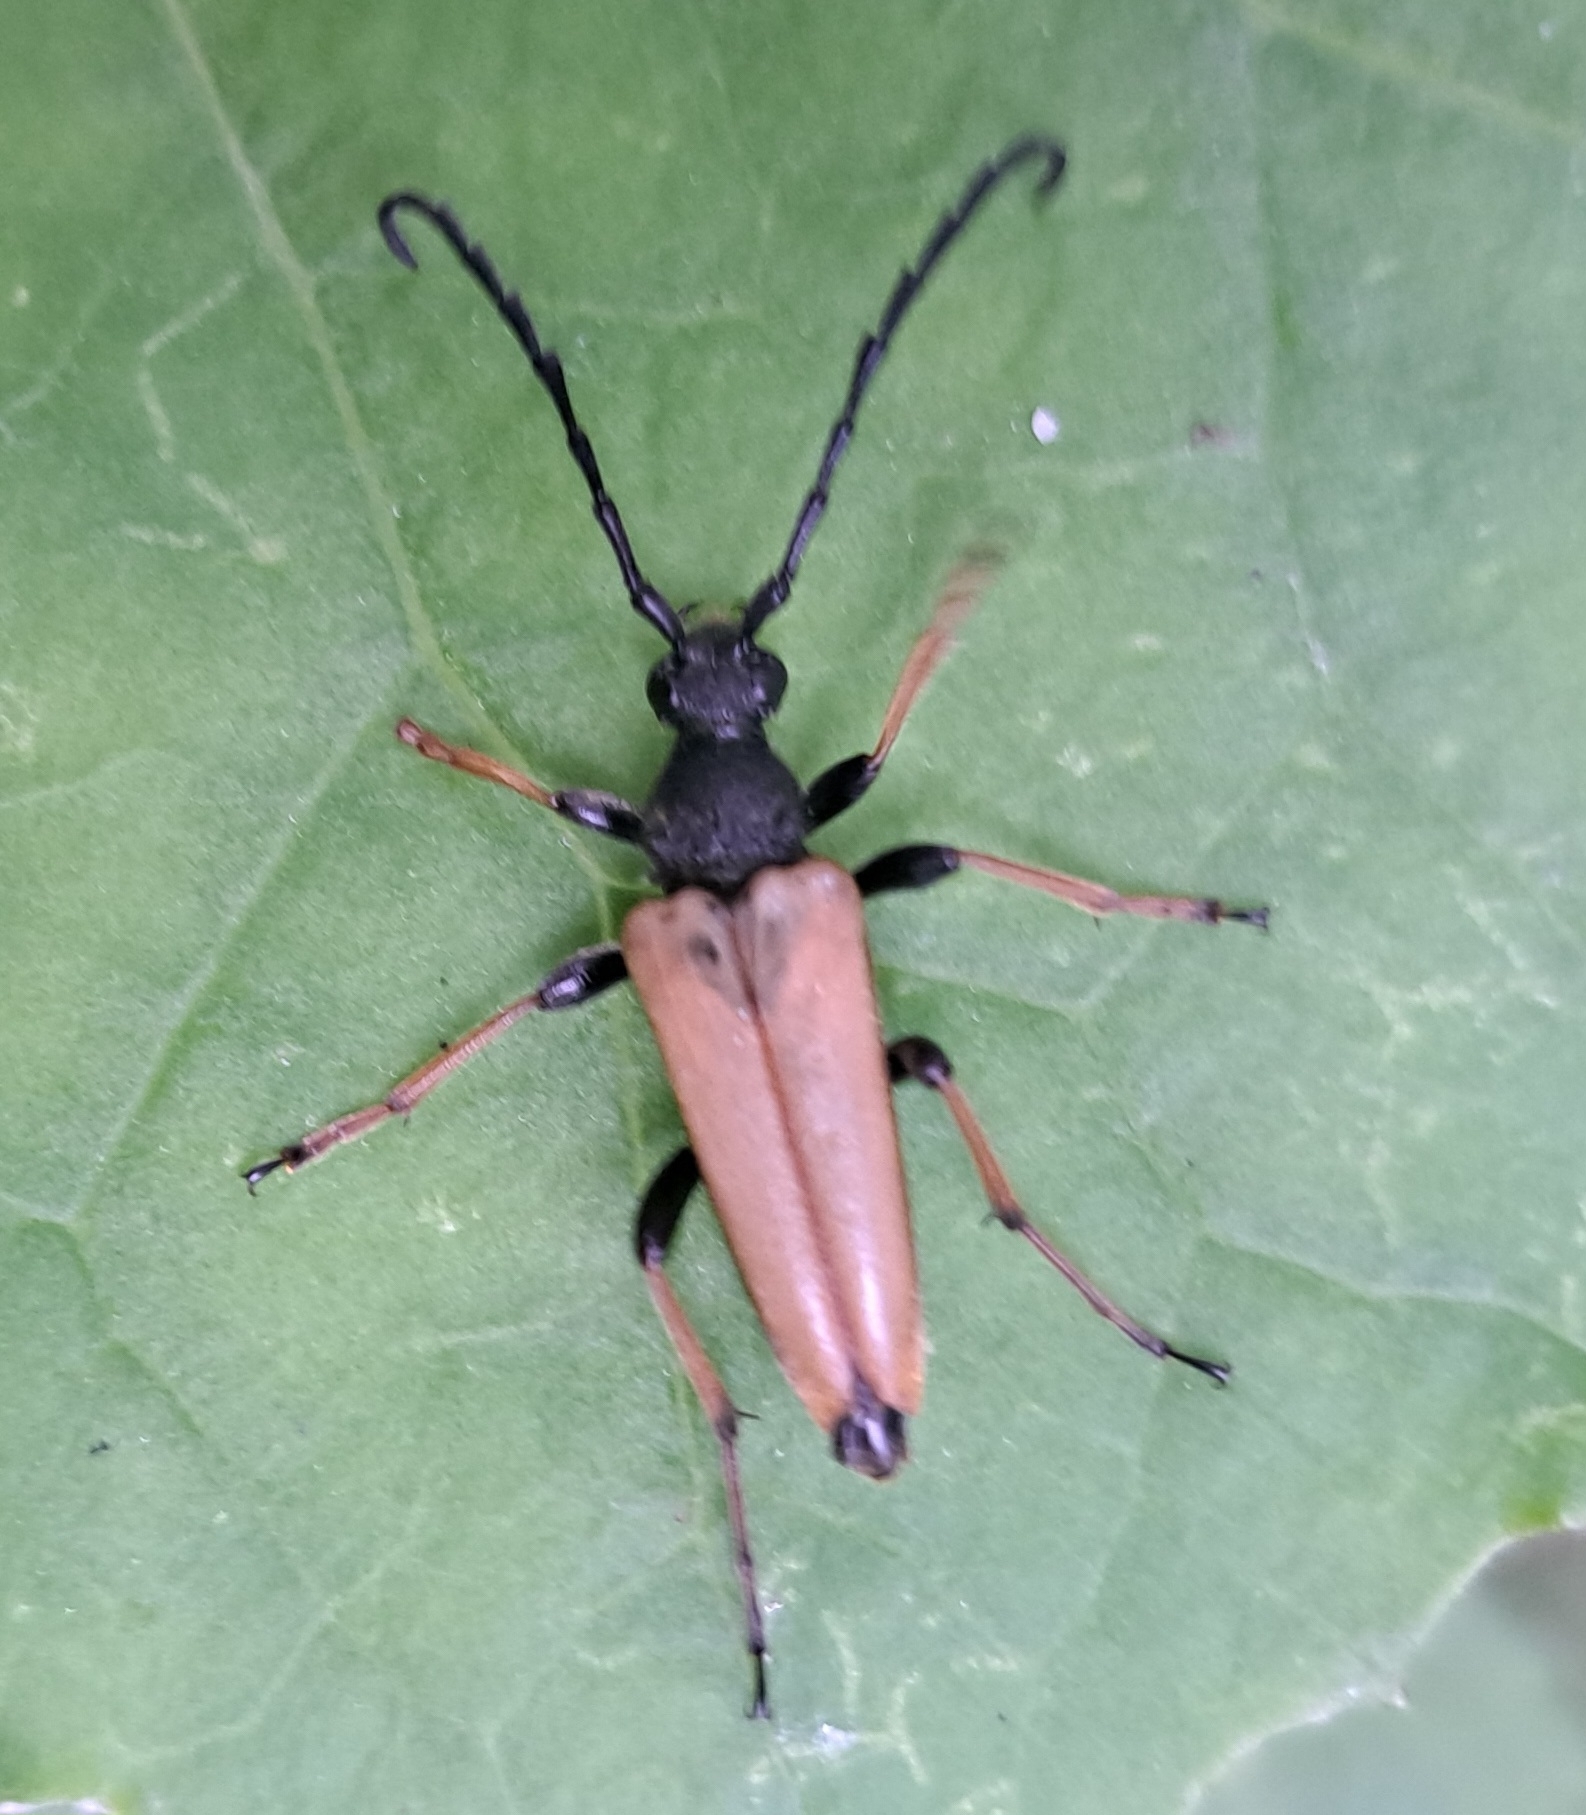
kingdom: Animalia
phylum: Arthropoda
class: Insecta
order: Coleoptera
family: Cerambycidae
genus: Stictoleptura
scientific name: Stictoleptura rubra
